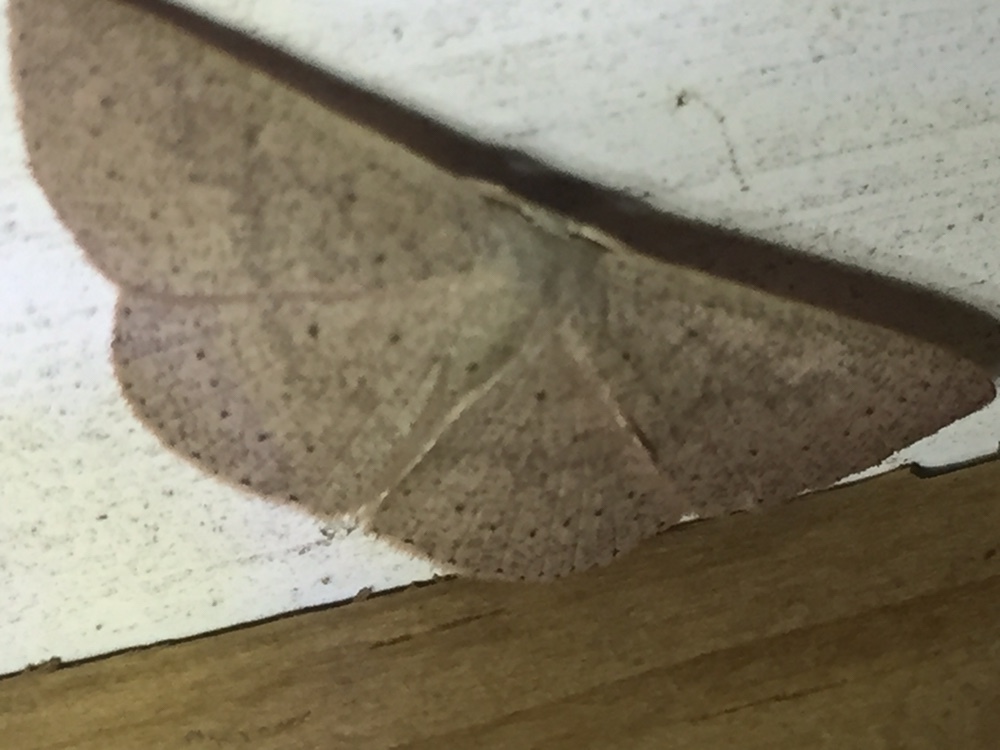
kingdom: Animalia
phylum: Arthropoda
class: Insecta
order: Lepidoptera
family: Geometridae
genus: Cyclophora
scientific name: Cyclophora obstataria
